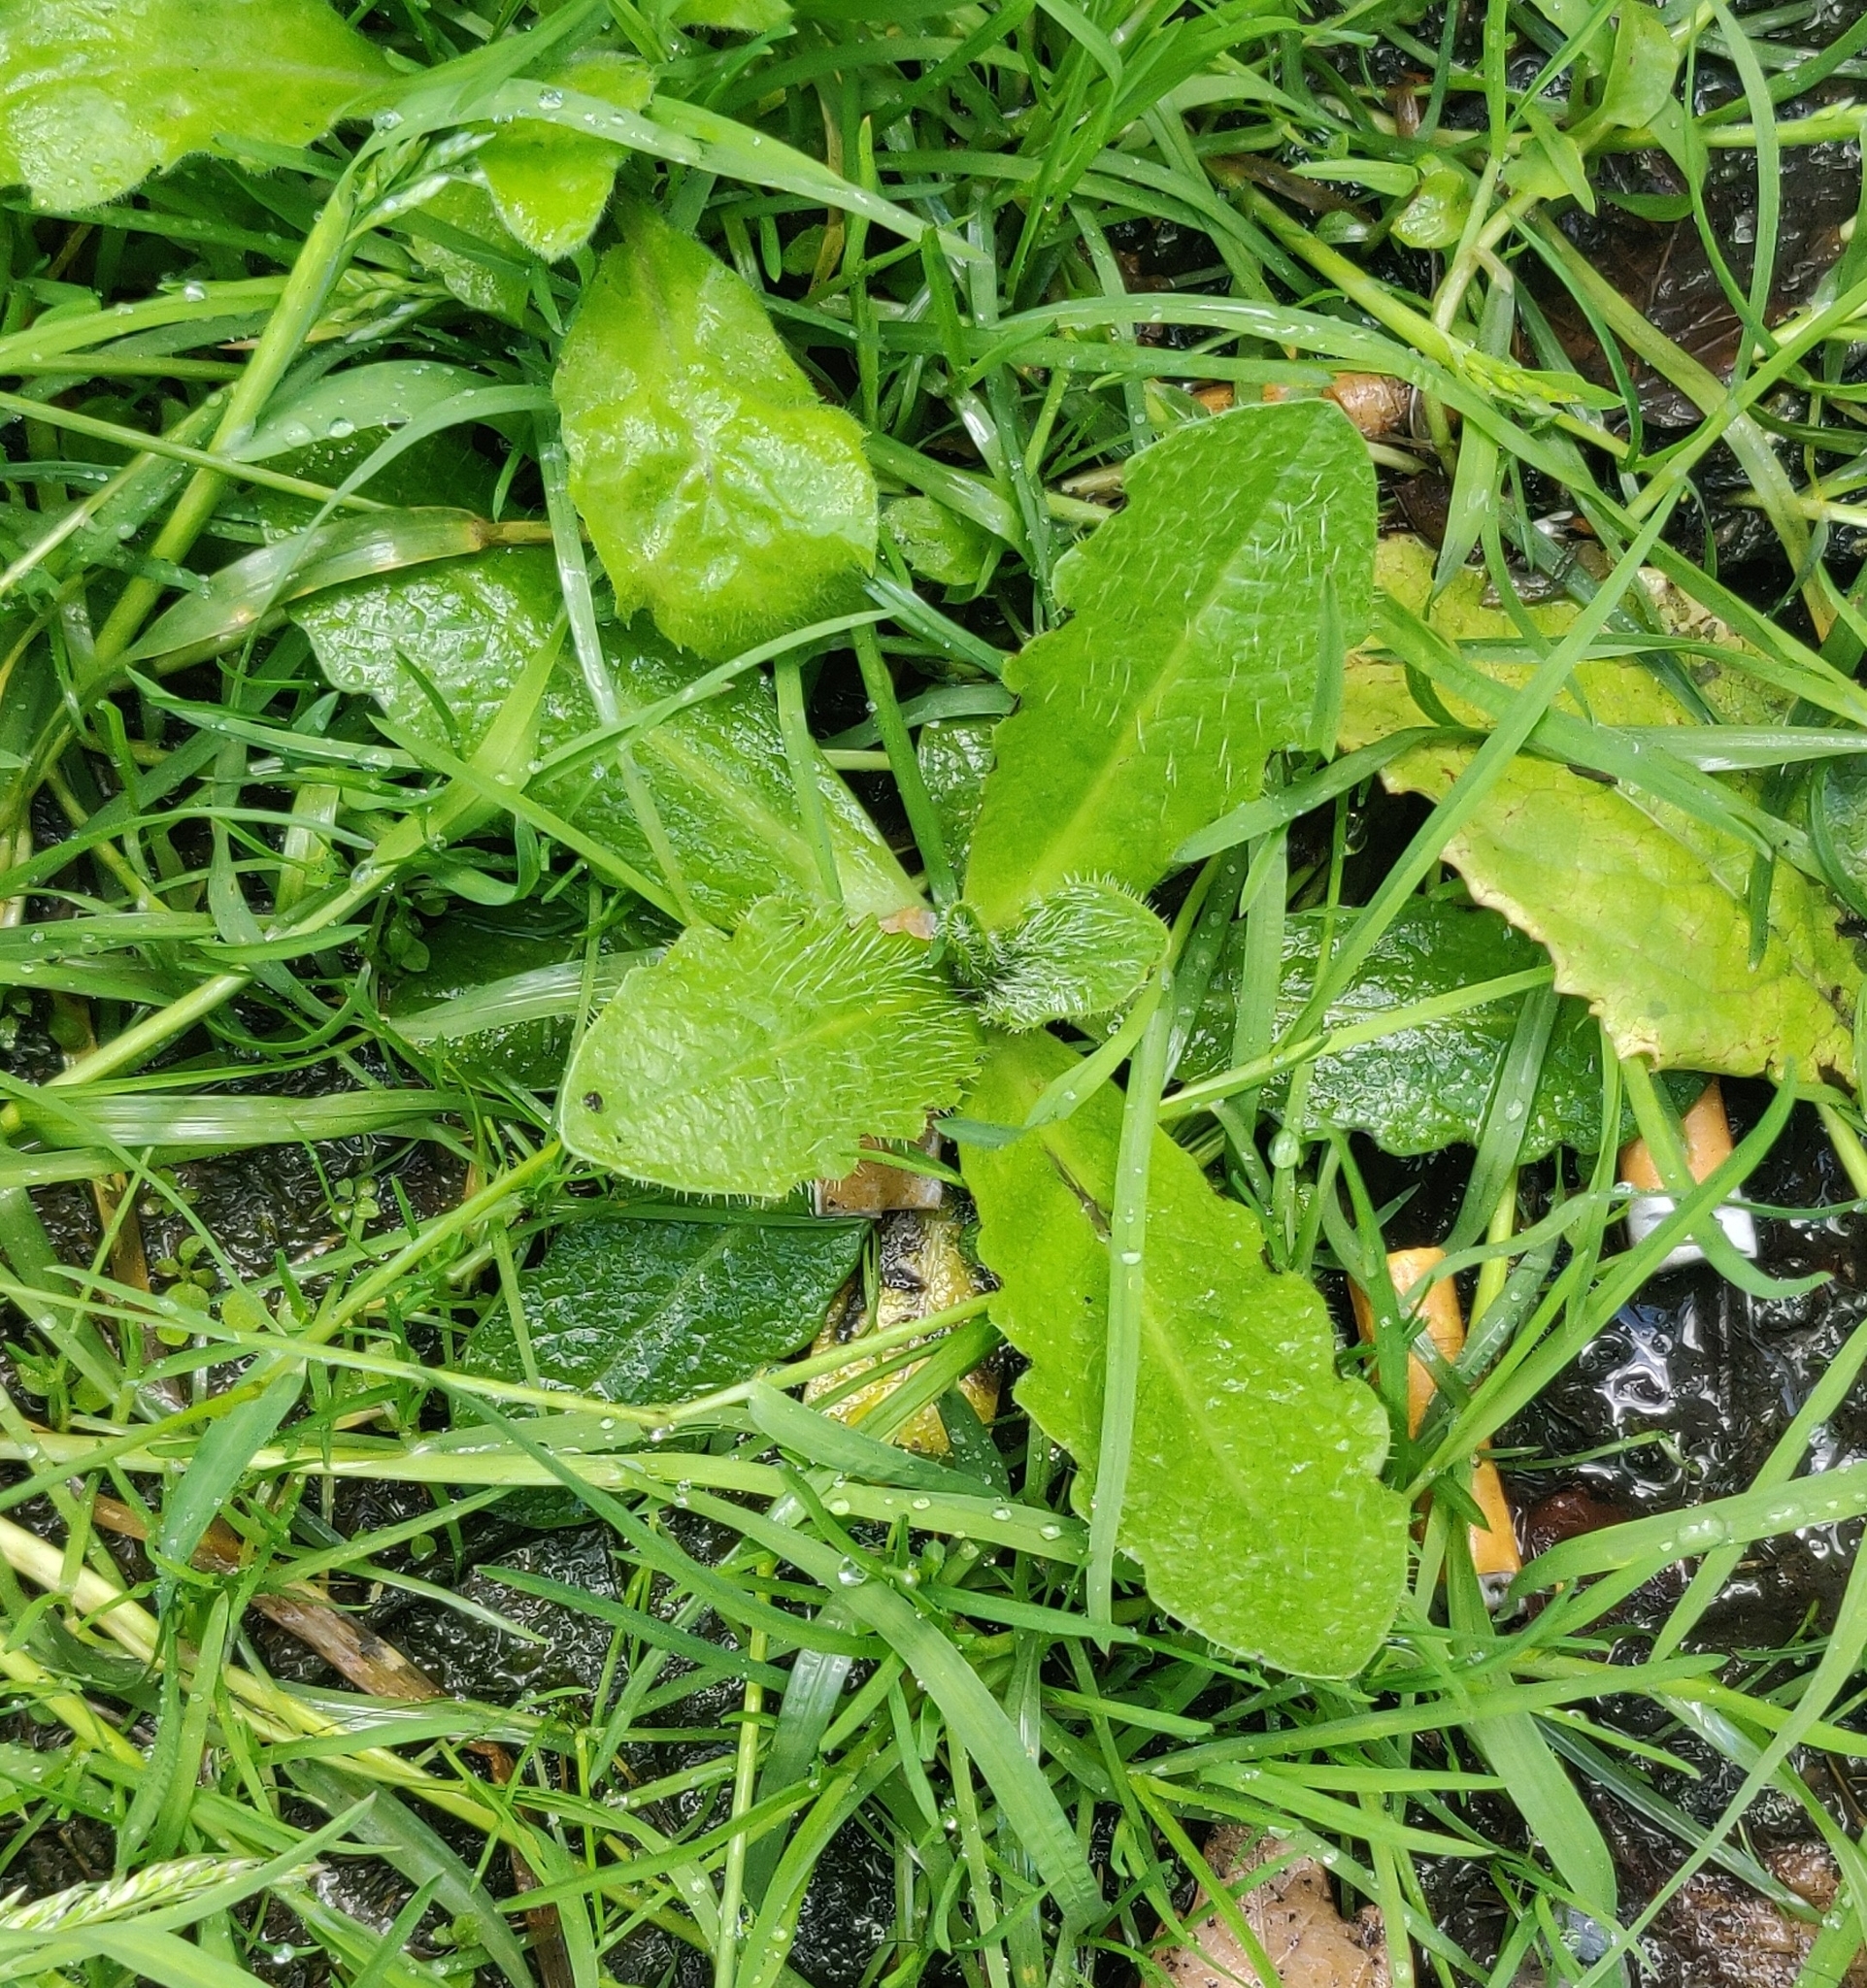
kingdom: Plantae
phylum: Tracheophyta
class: Magnoliopsida
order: Asterales
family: Asteraceae
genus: Hypochaeris
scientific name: Hypochaeris radicata
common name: Flatweed
